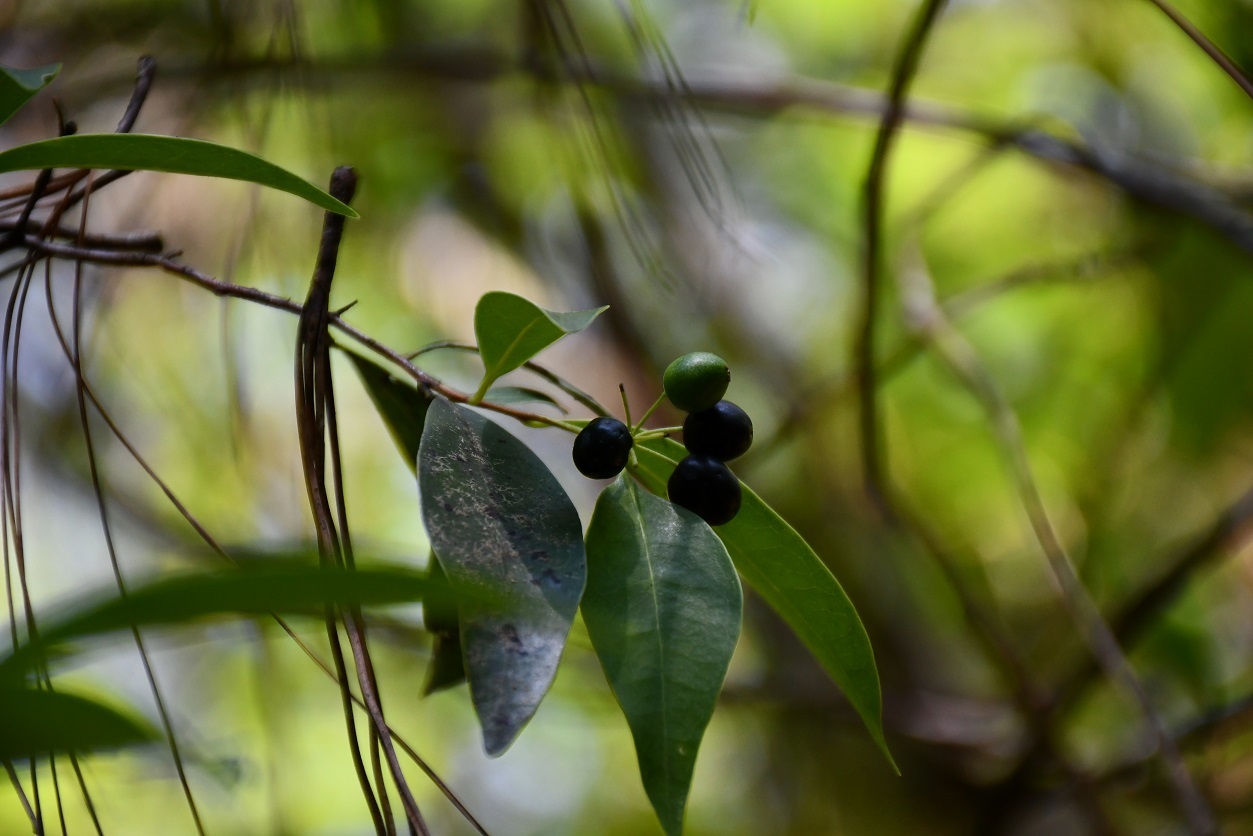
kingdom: Plantae
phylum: Tracheophyta
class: Magnoliopsida
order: Malvales
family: Thymelaeaceae
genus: Daphnopsis
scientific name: Daphnopsis ficina
